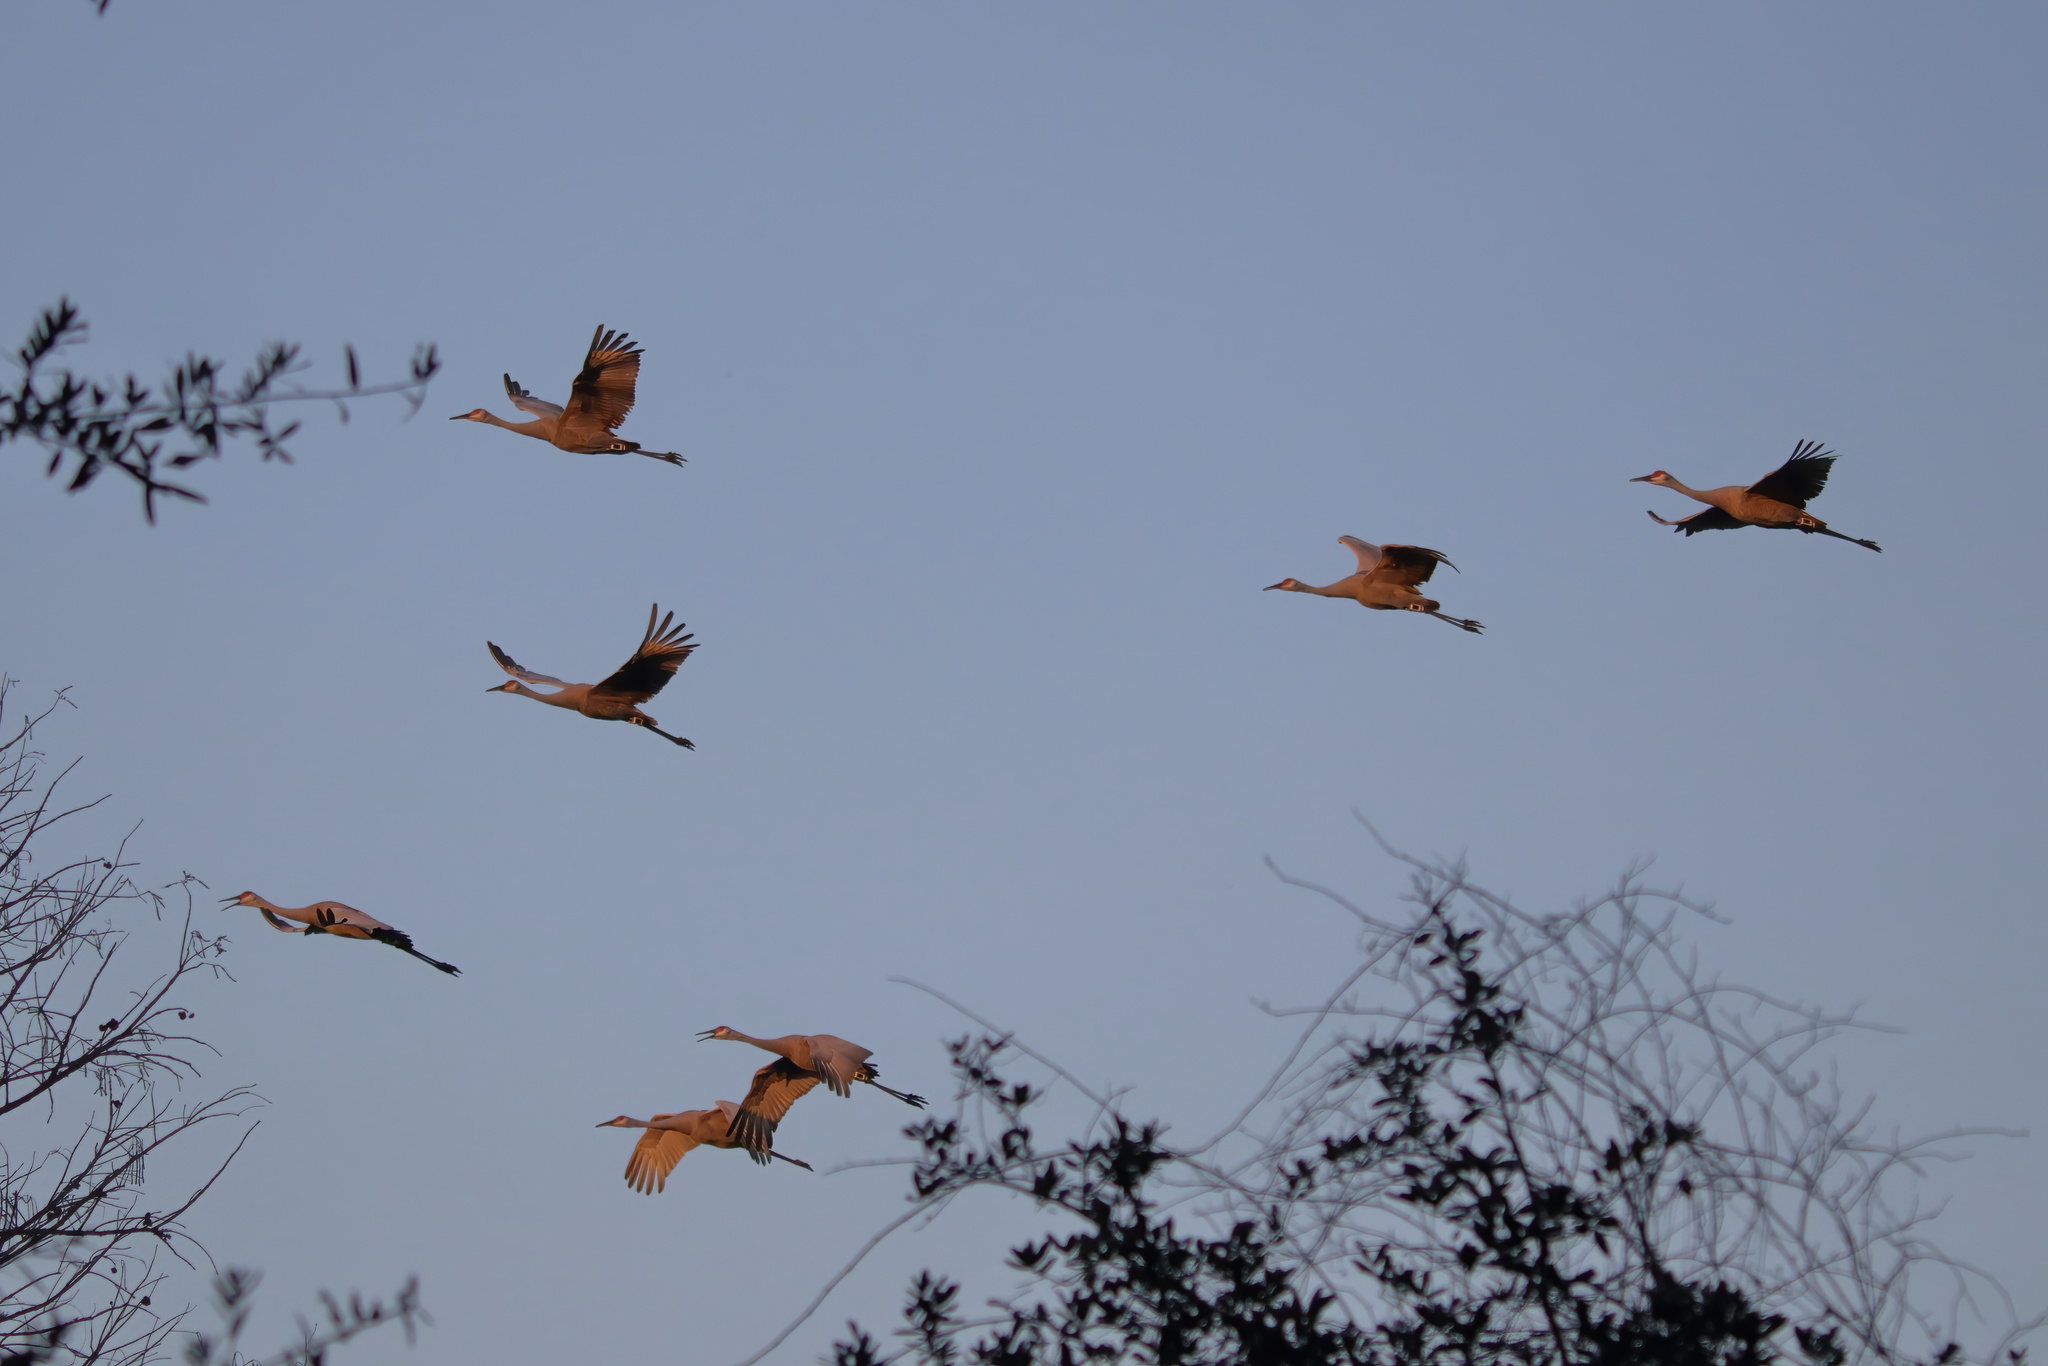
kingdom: Animalia
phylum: Chordata
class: Aves
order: Gruiformes
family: Gruidae
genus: Grus
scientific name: Grus canadensis
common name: Sandhill crane
